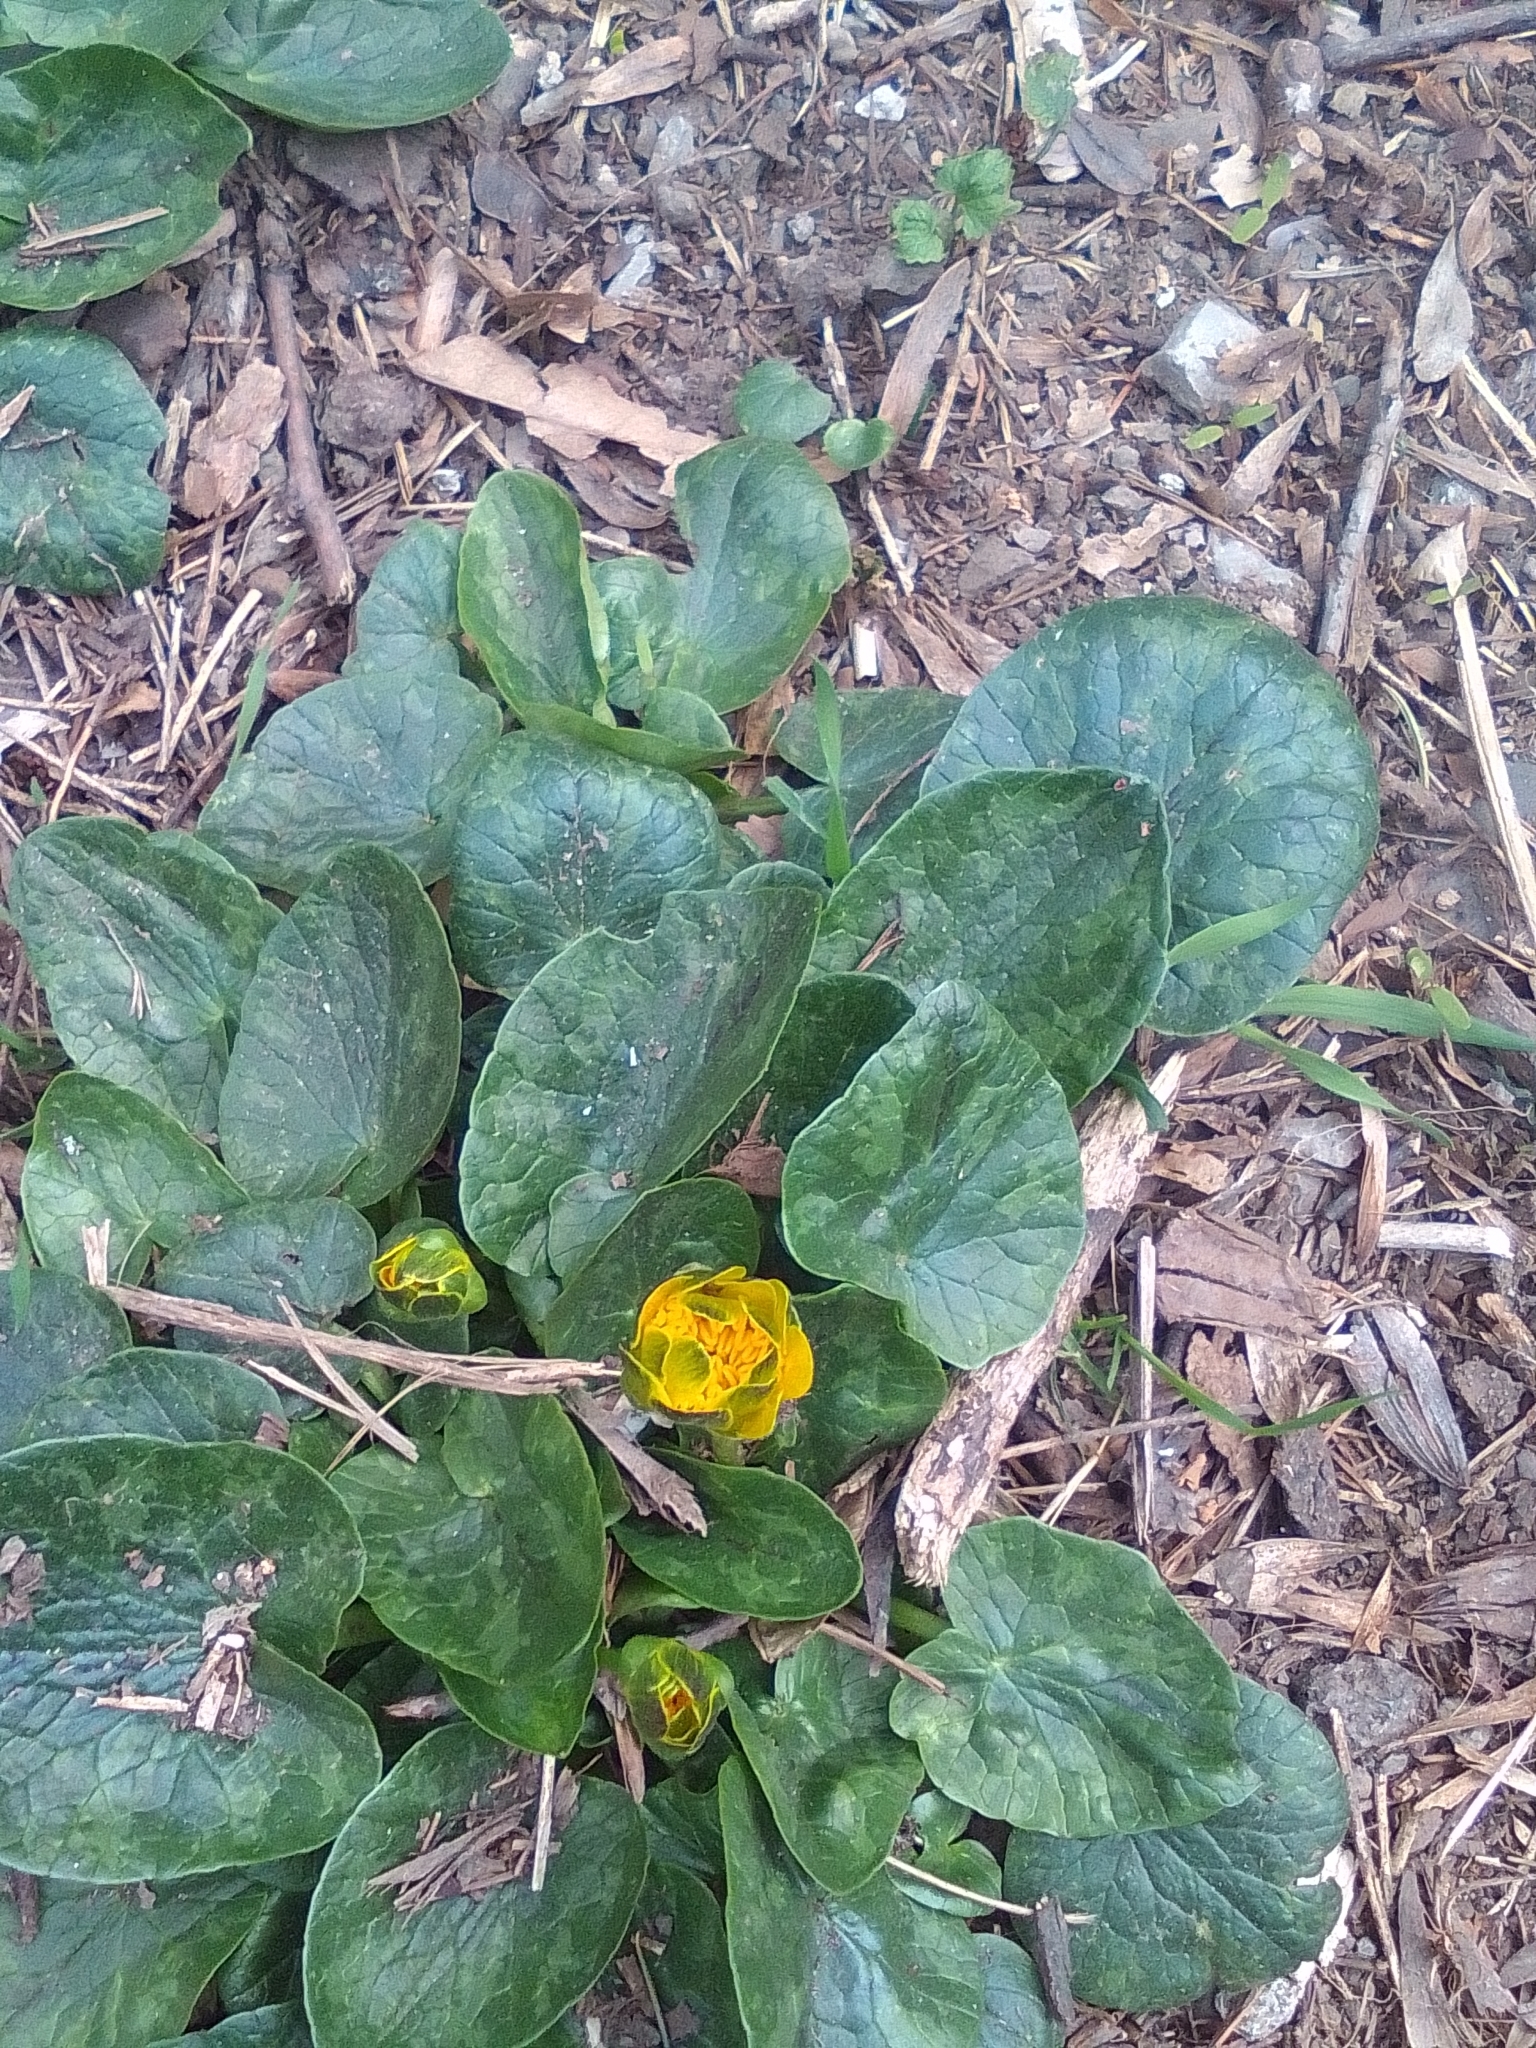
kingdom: Plantae
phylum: Tracheophyta
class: Magnoliopsida
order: Ranunculales
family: Ranunculaceae
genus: Ficaria
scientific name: Ficaria verna
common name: Lesser celandine
